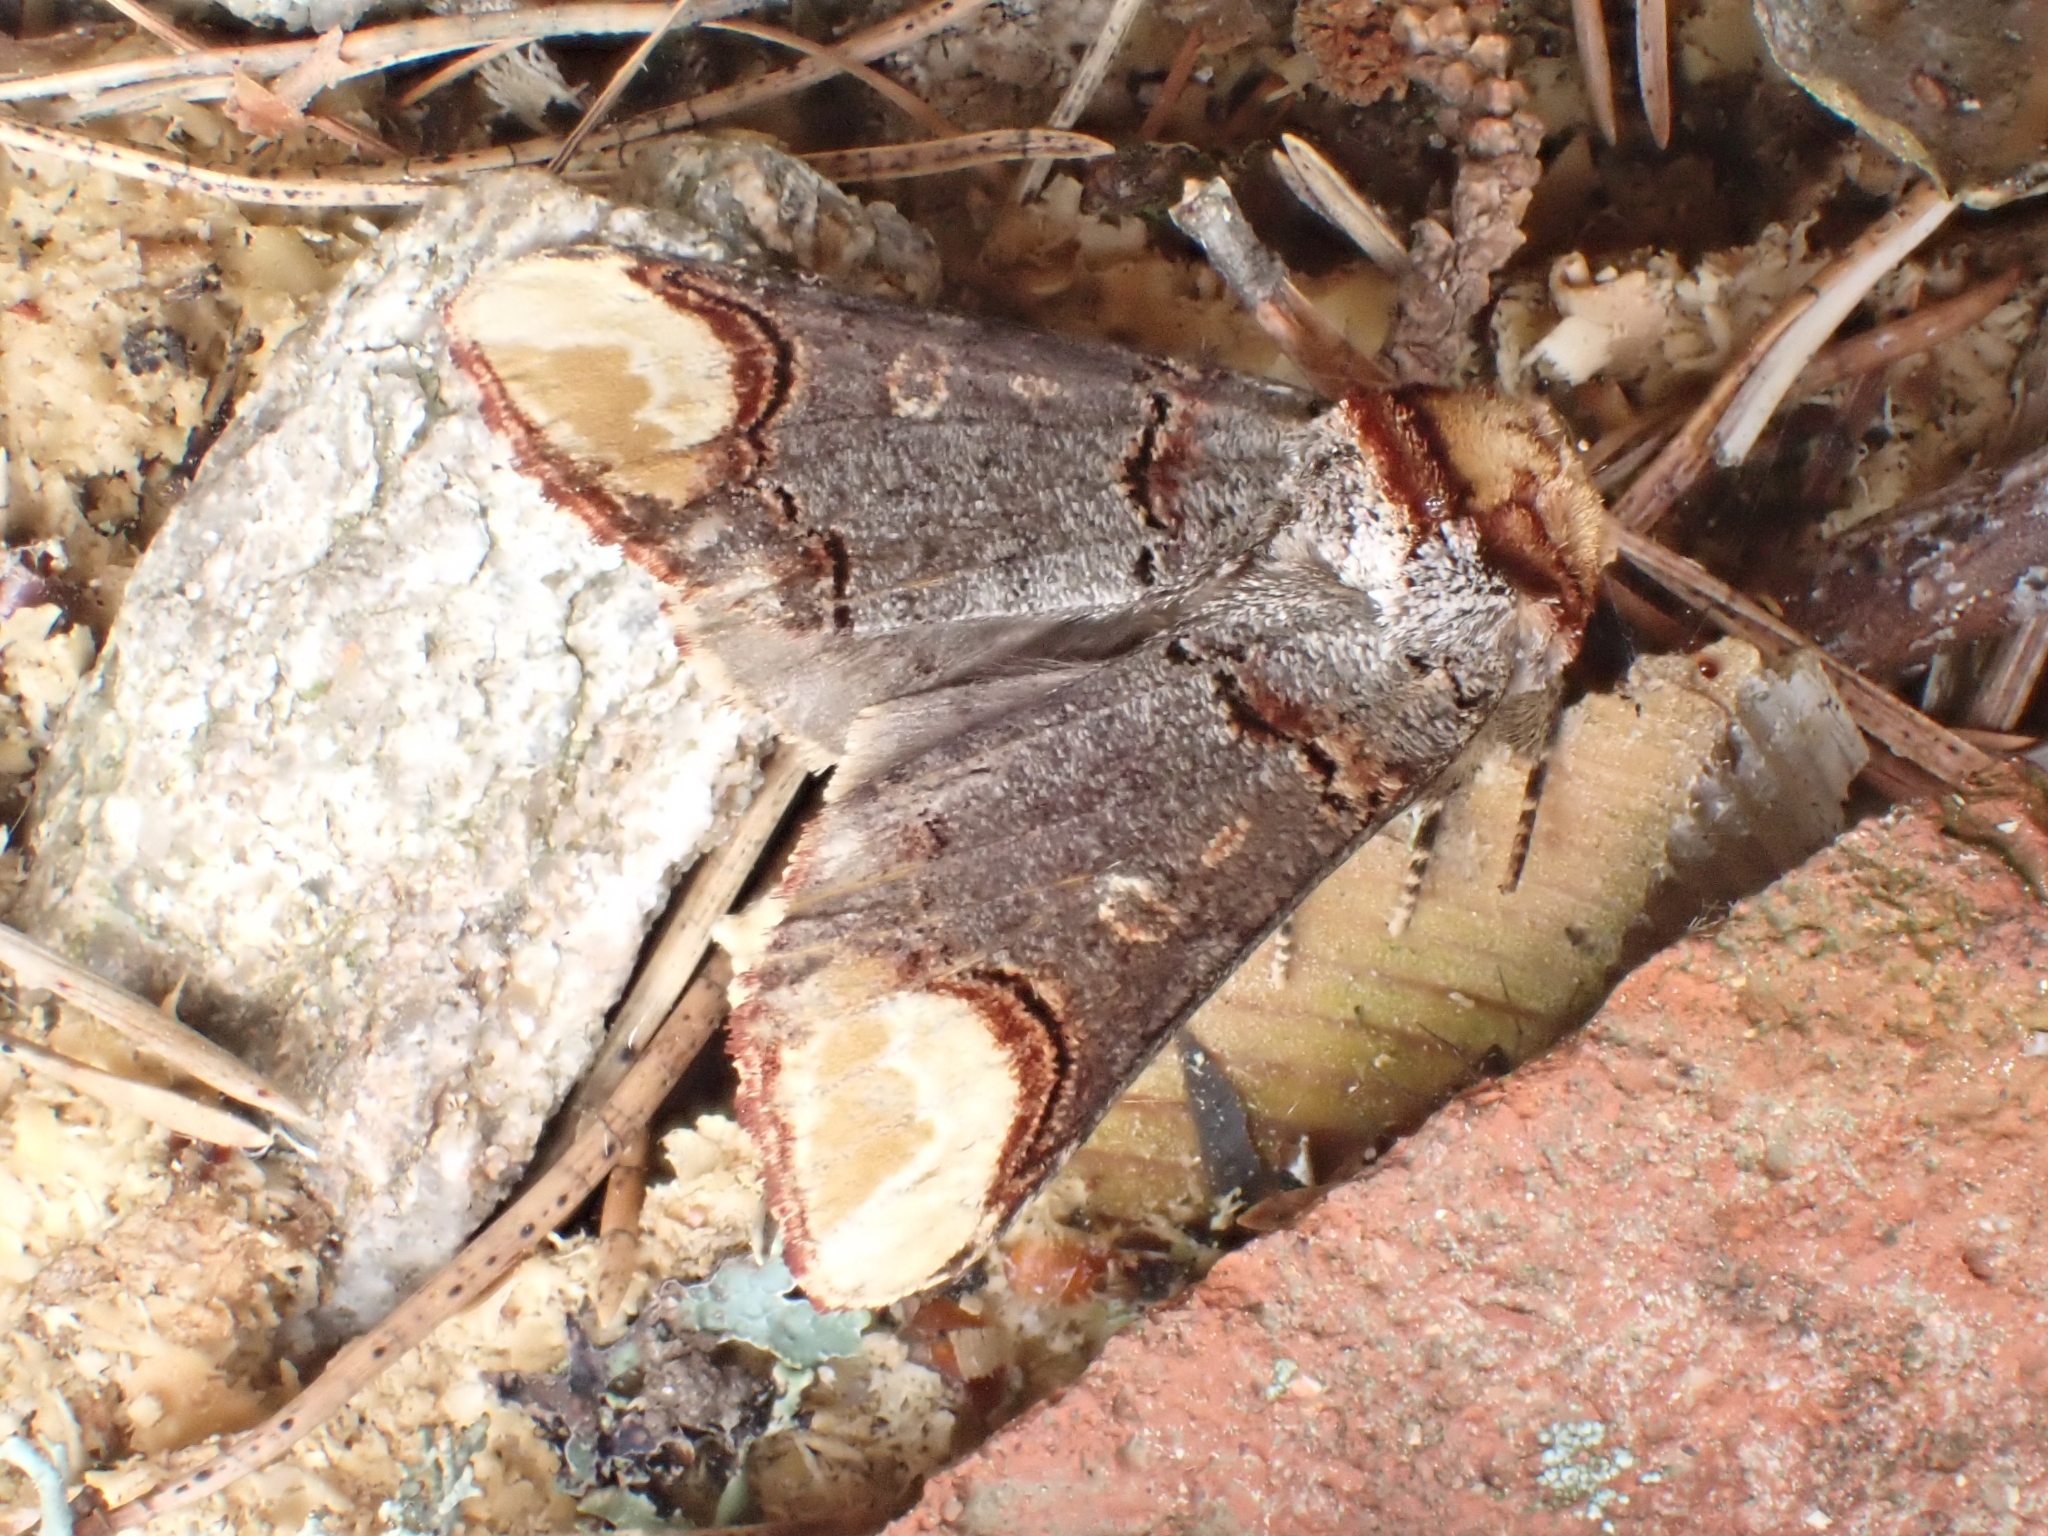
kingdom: Animalia
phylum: Arthropoda
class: Insecta
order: Lepidoptera
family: Notodontidae
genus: Phalera
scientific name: Phalera bucephala
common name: Buff-tip
